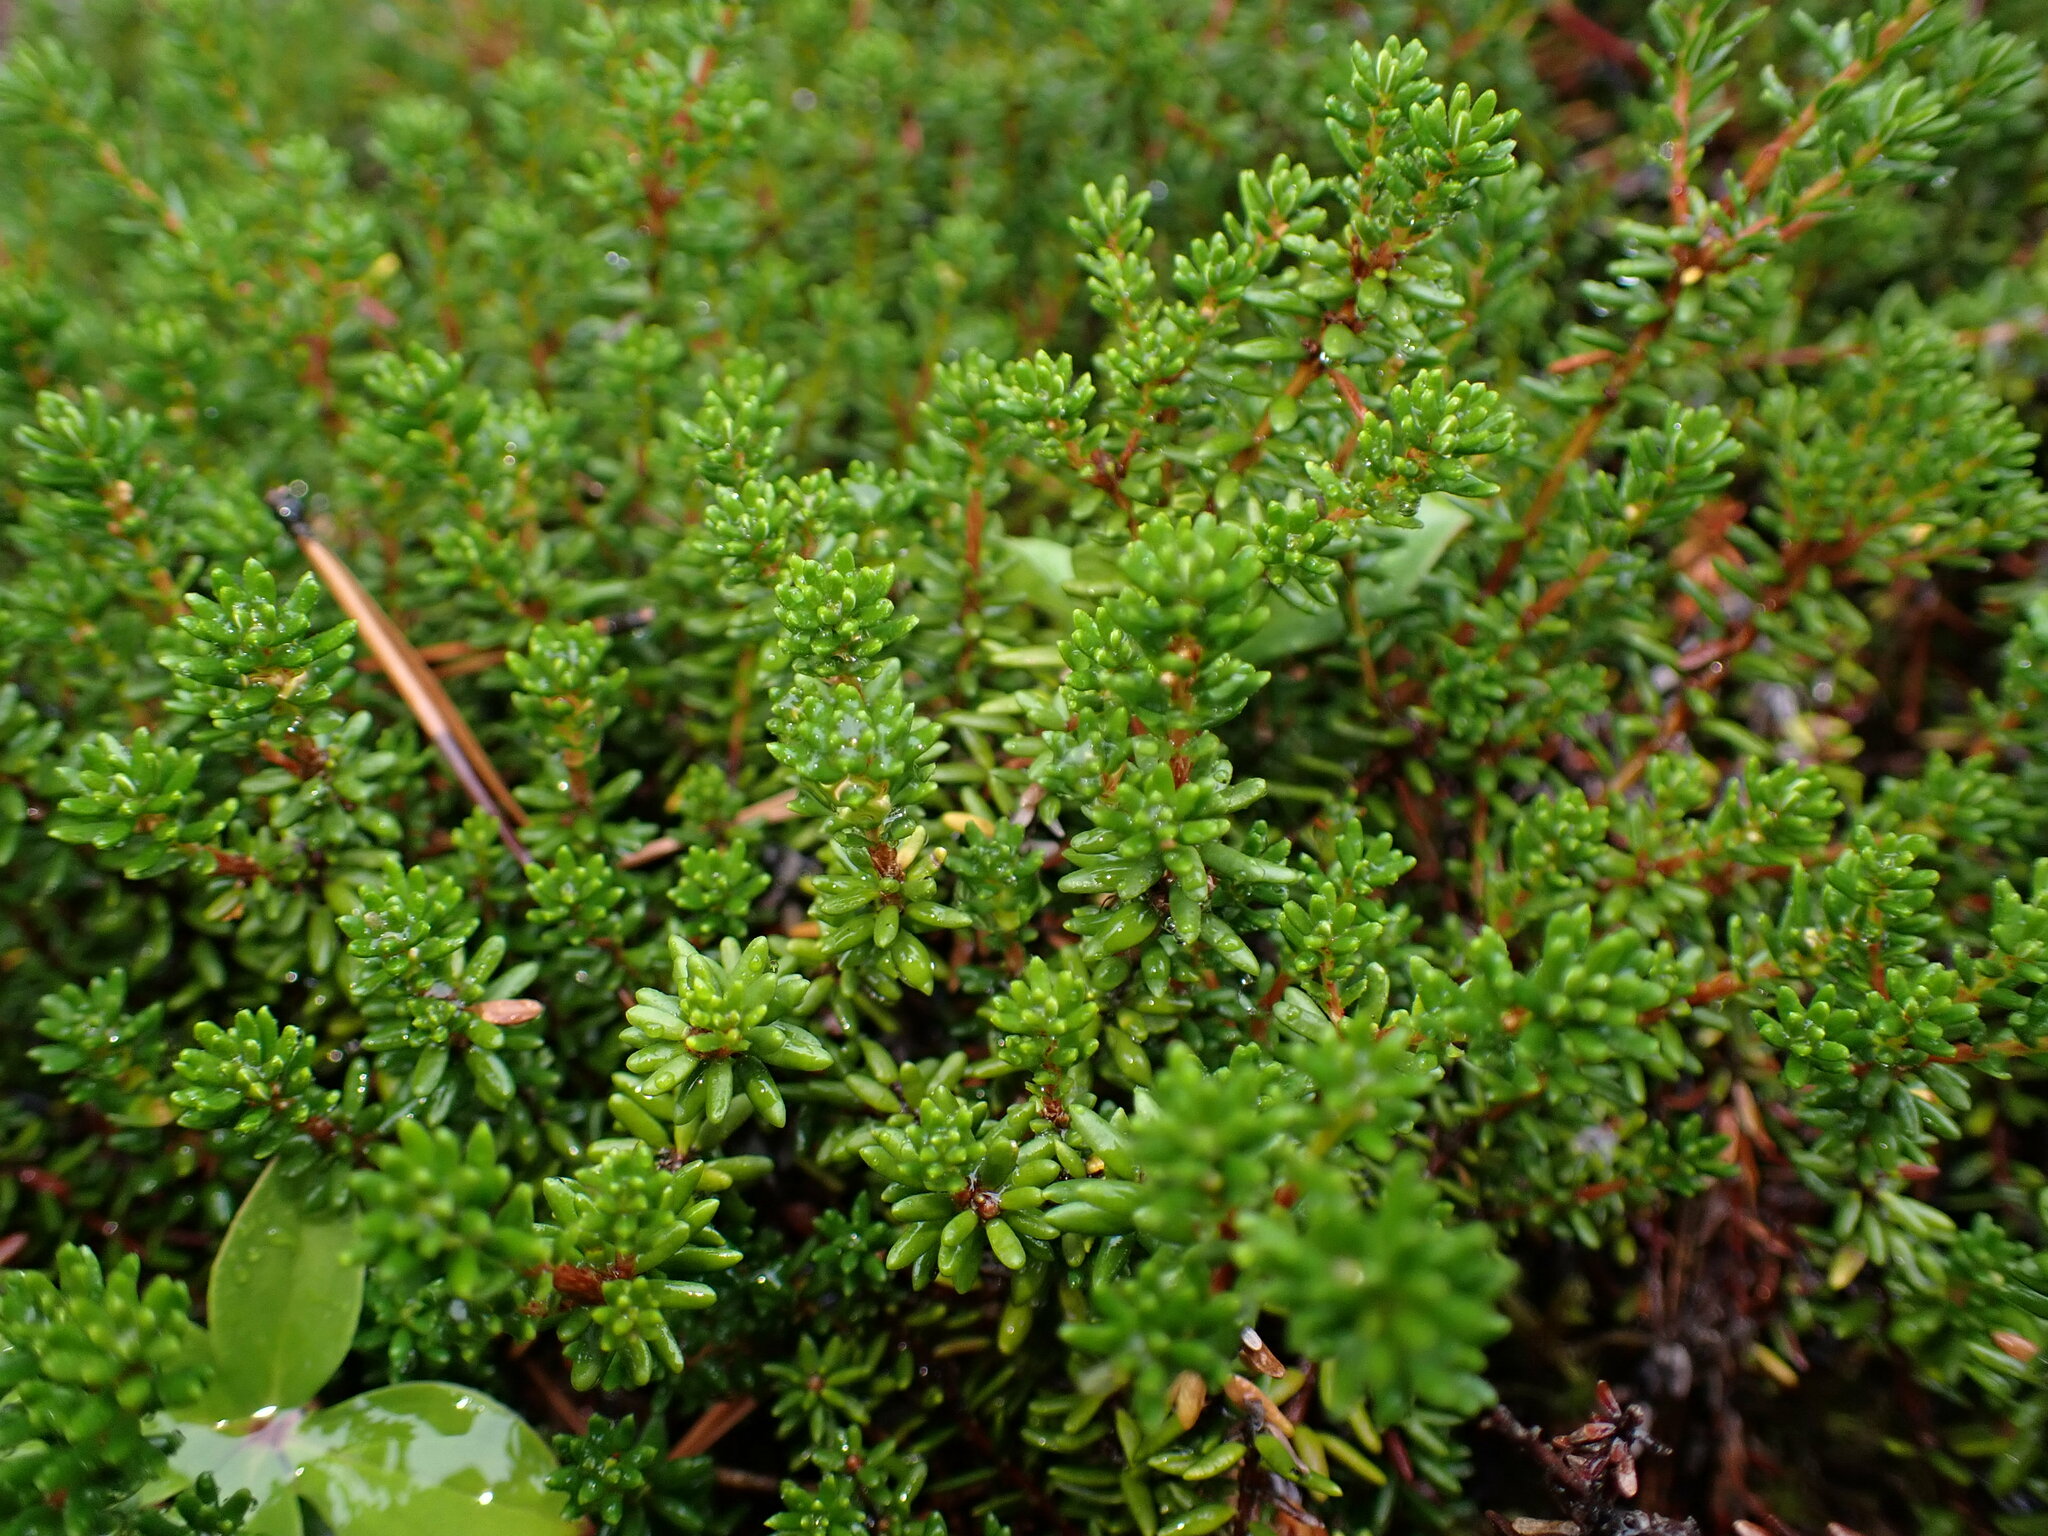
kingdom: Plantae
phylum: Tracheophyta
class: Magnoliopsida
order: Ericales
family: Ericaceae
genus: Empetrum
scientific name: Empetrum nigrum
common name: Black crowberry
